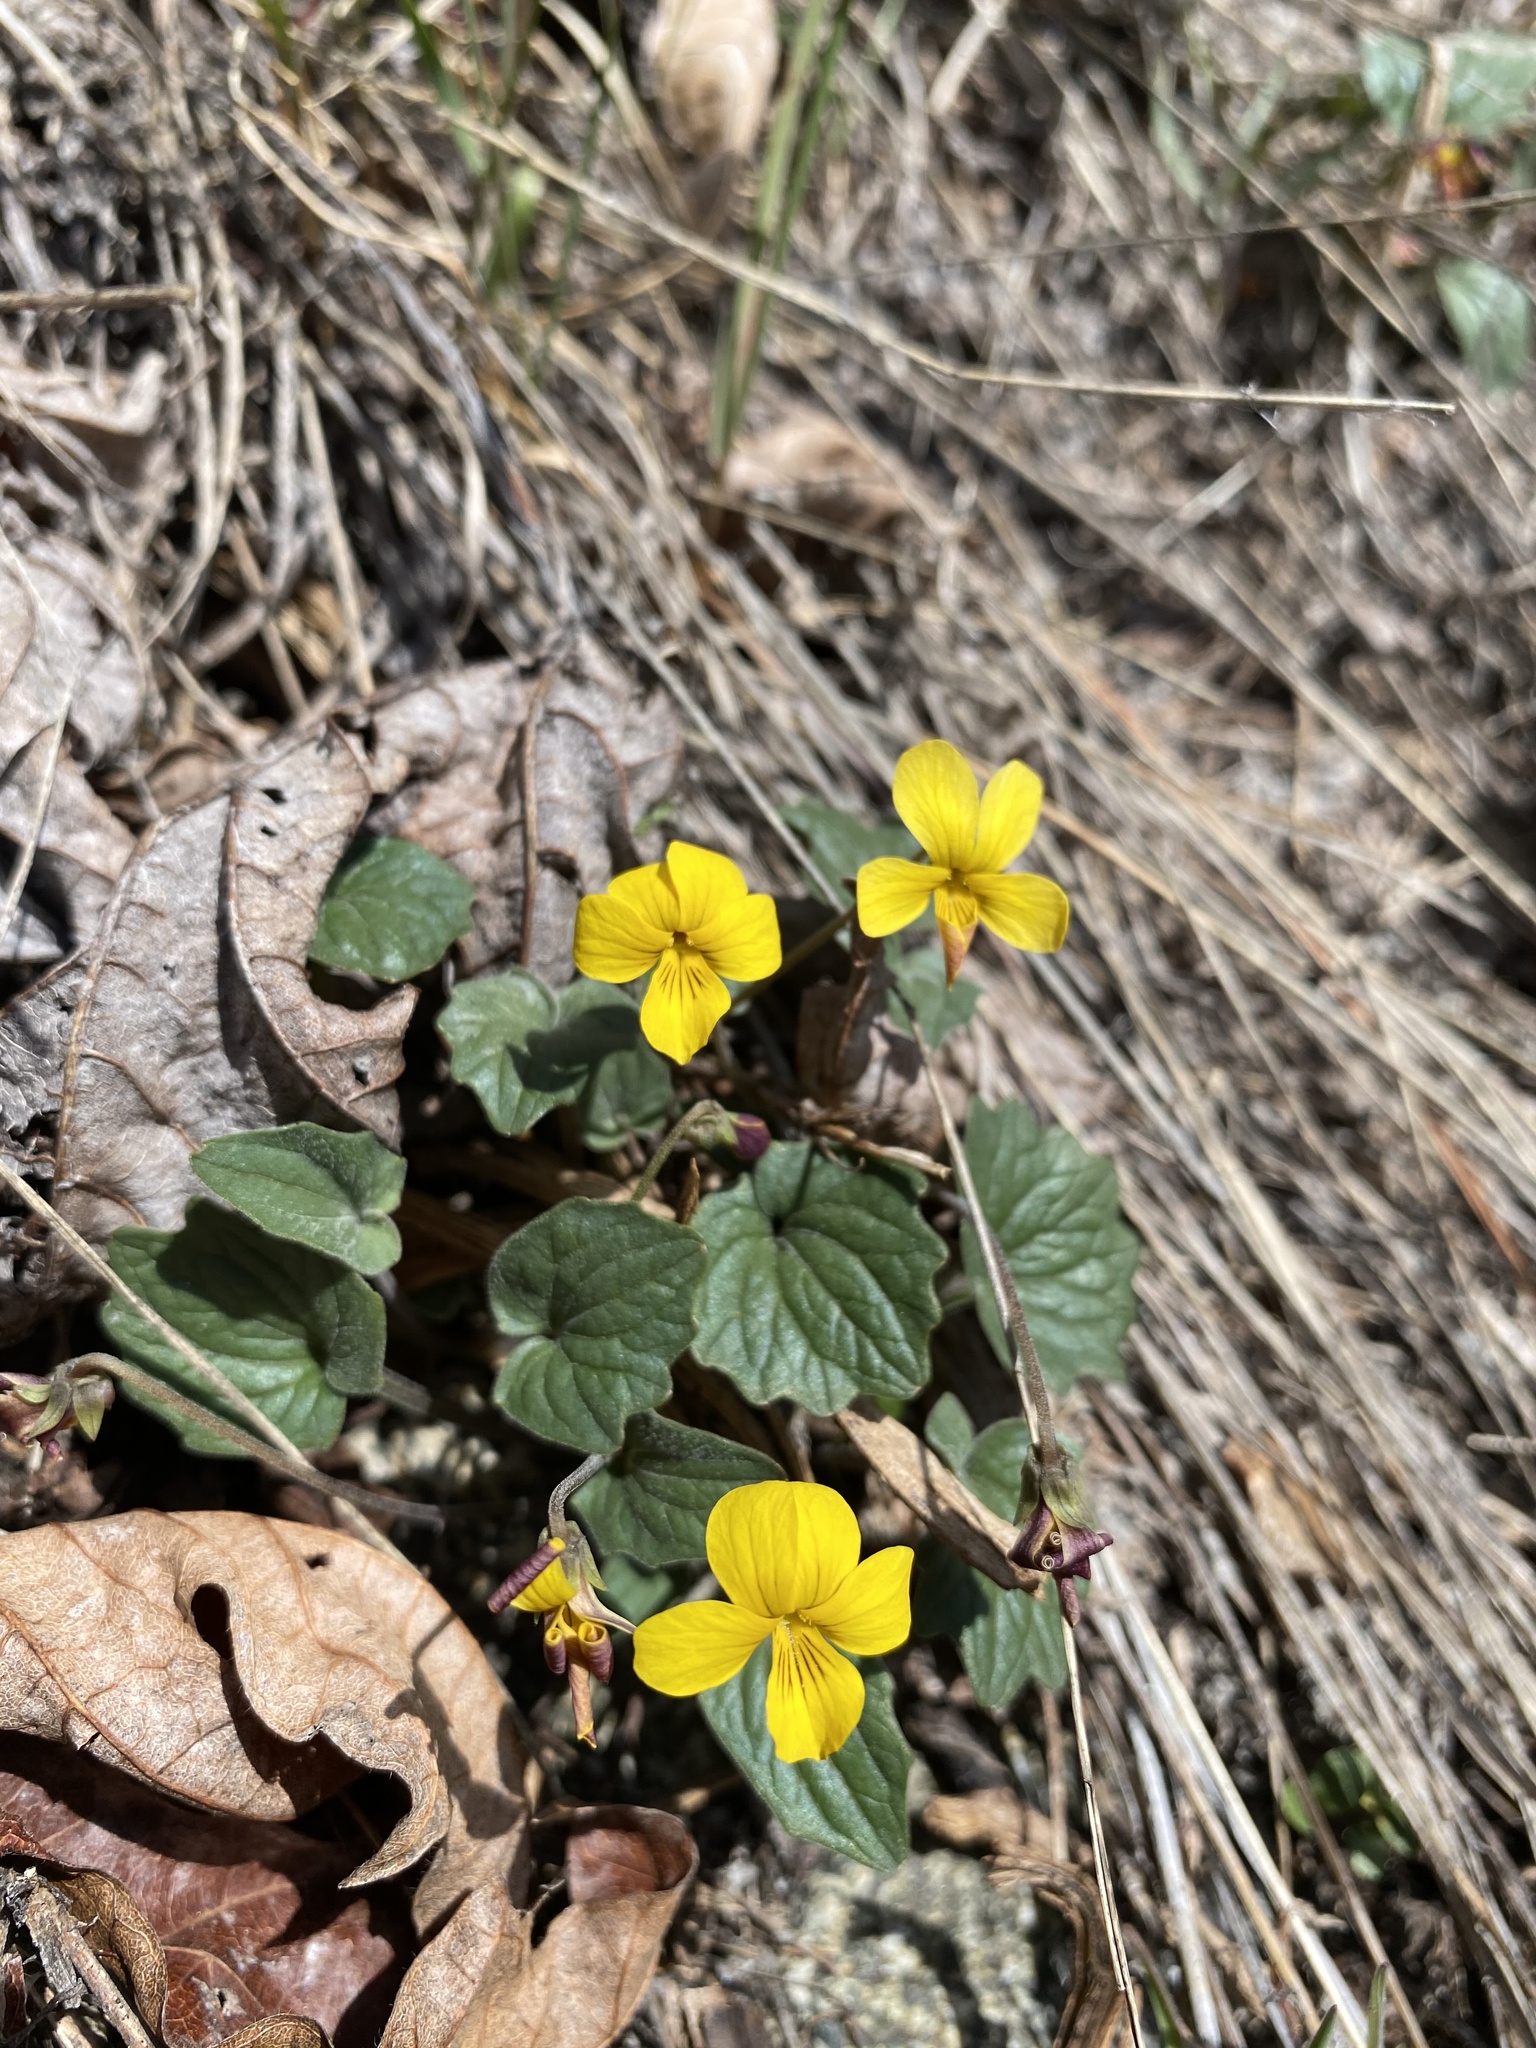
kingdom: Plantae
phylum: Tracheophyta
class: Magnoliopsida
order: Malpighiales
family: Violaceae
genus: Viola
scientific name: Viola purpurea
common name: Pine violet
